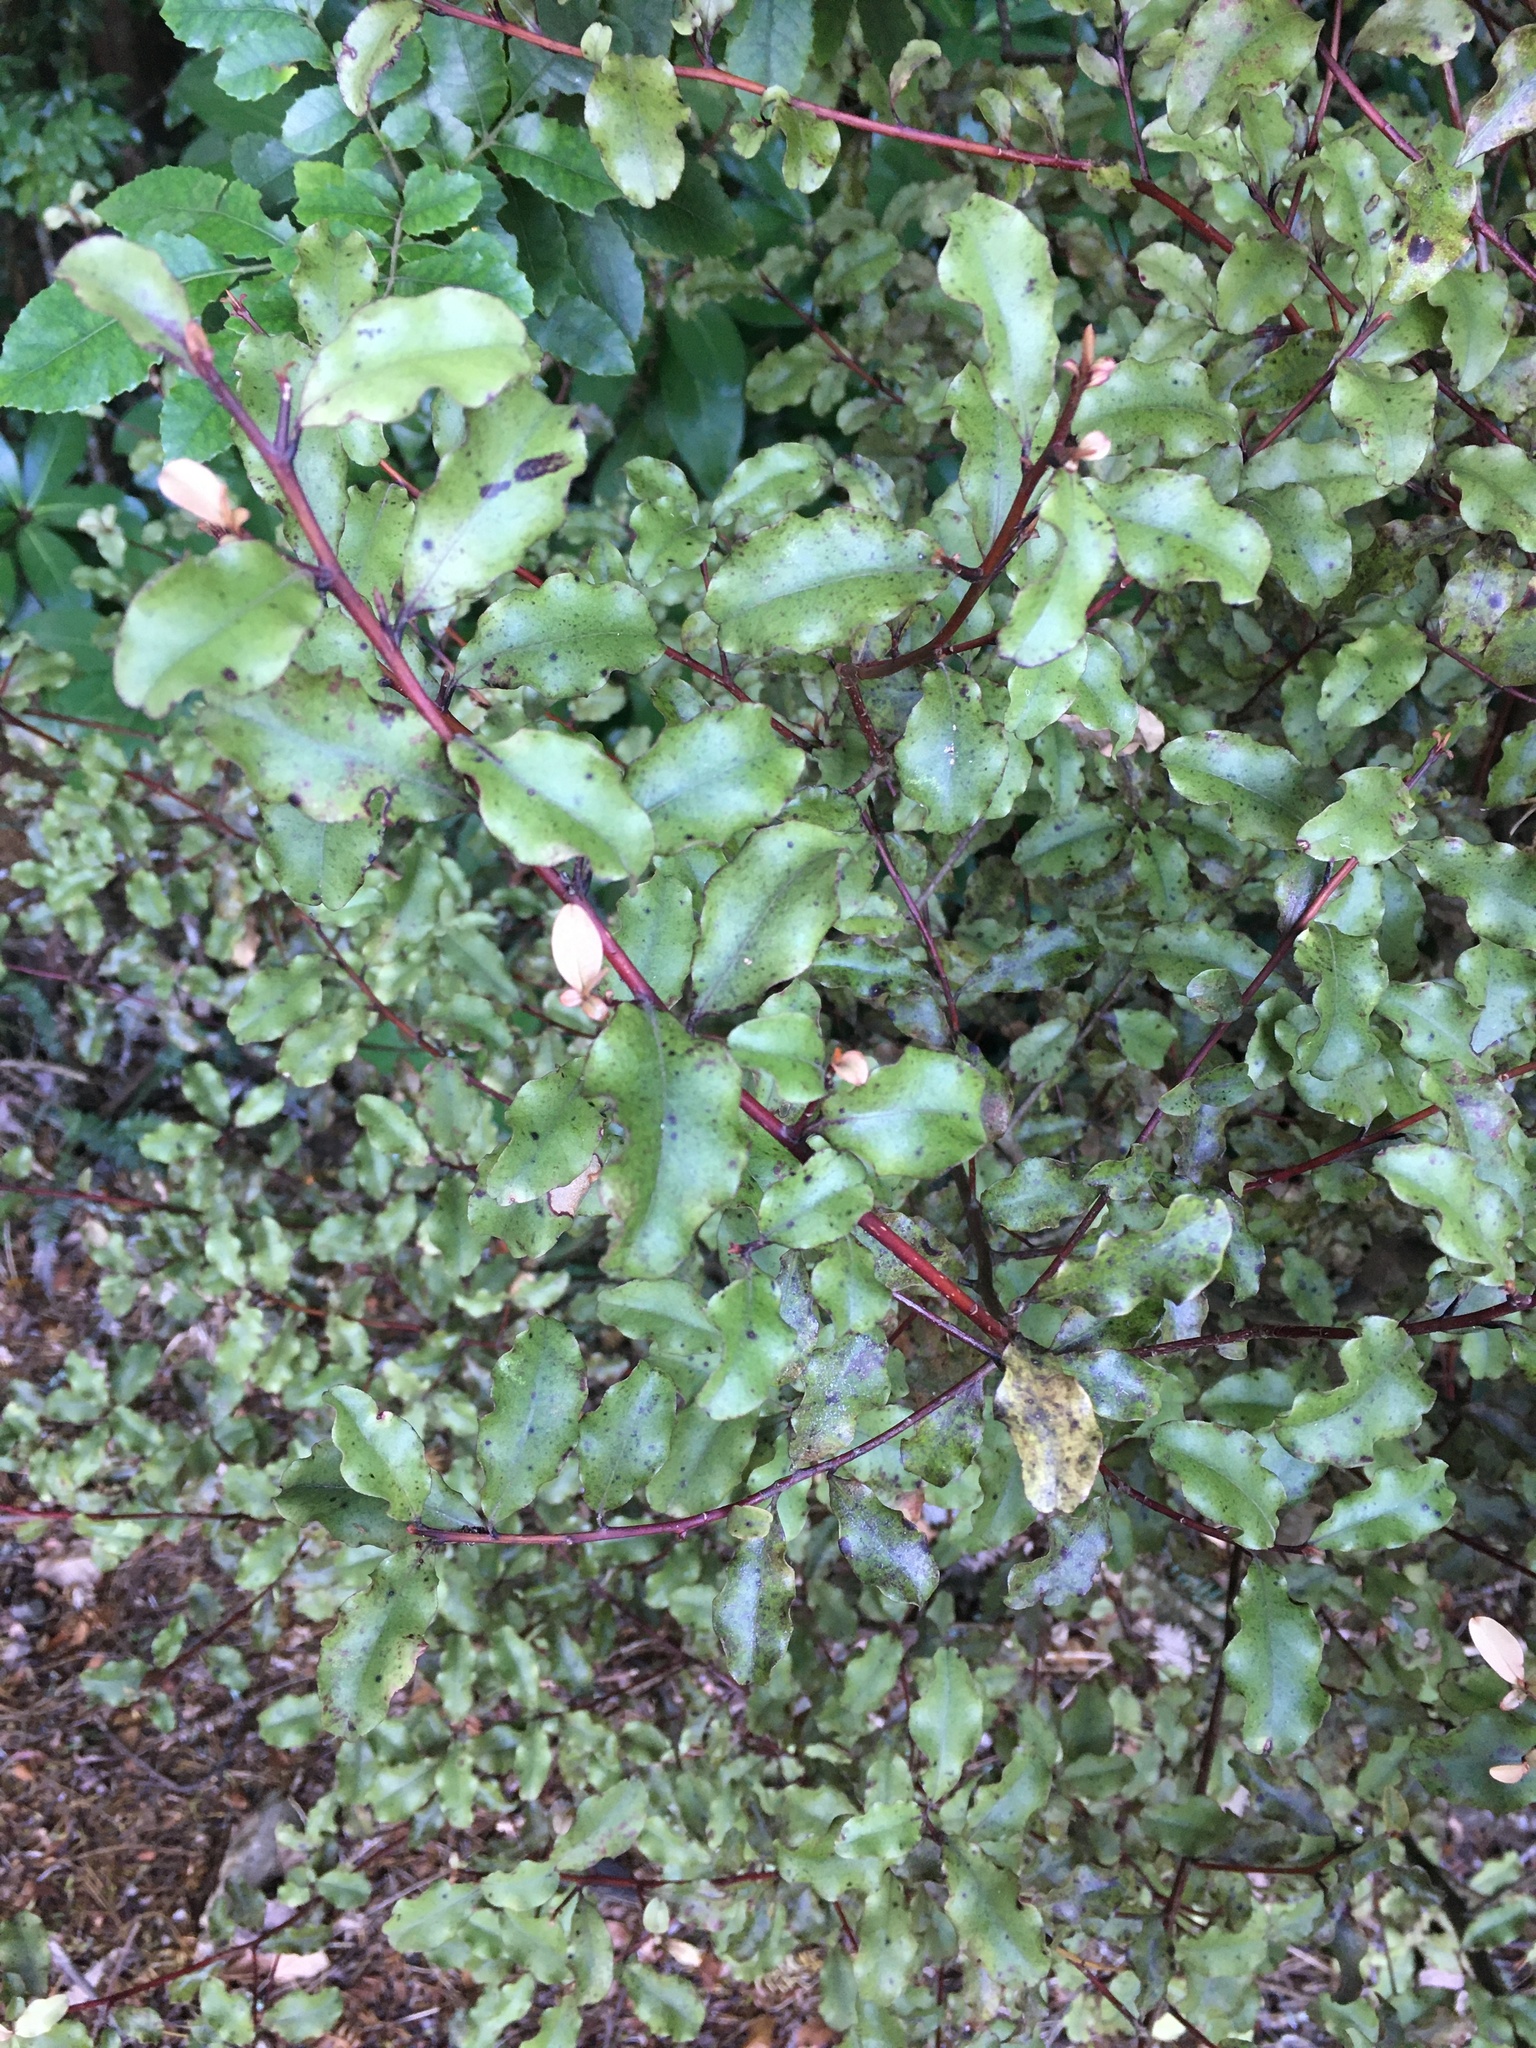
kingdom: Plantae
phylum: Tracheophyta
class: Magnoliopsida
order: Ericales
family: Primulaceae
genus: Myrsine
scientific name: Myrsine australis
